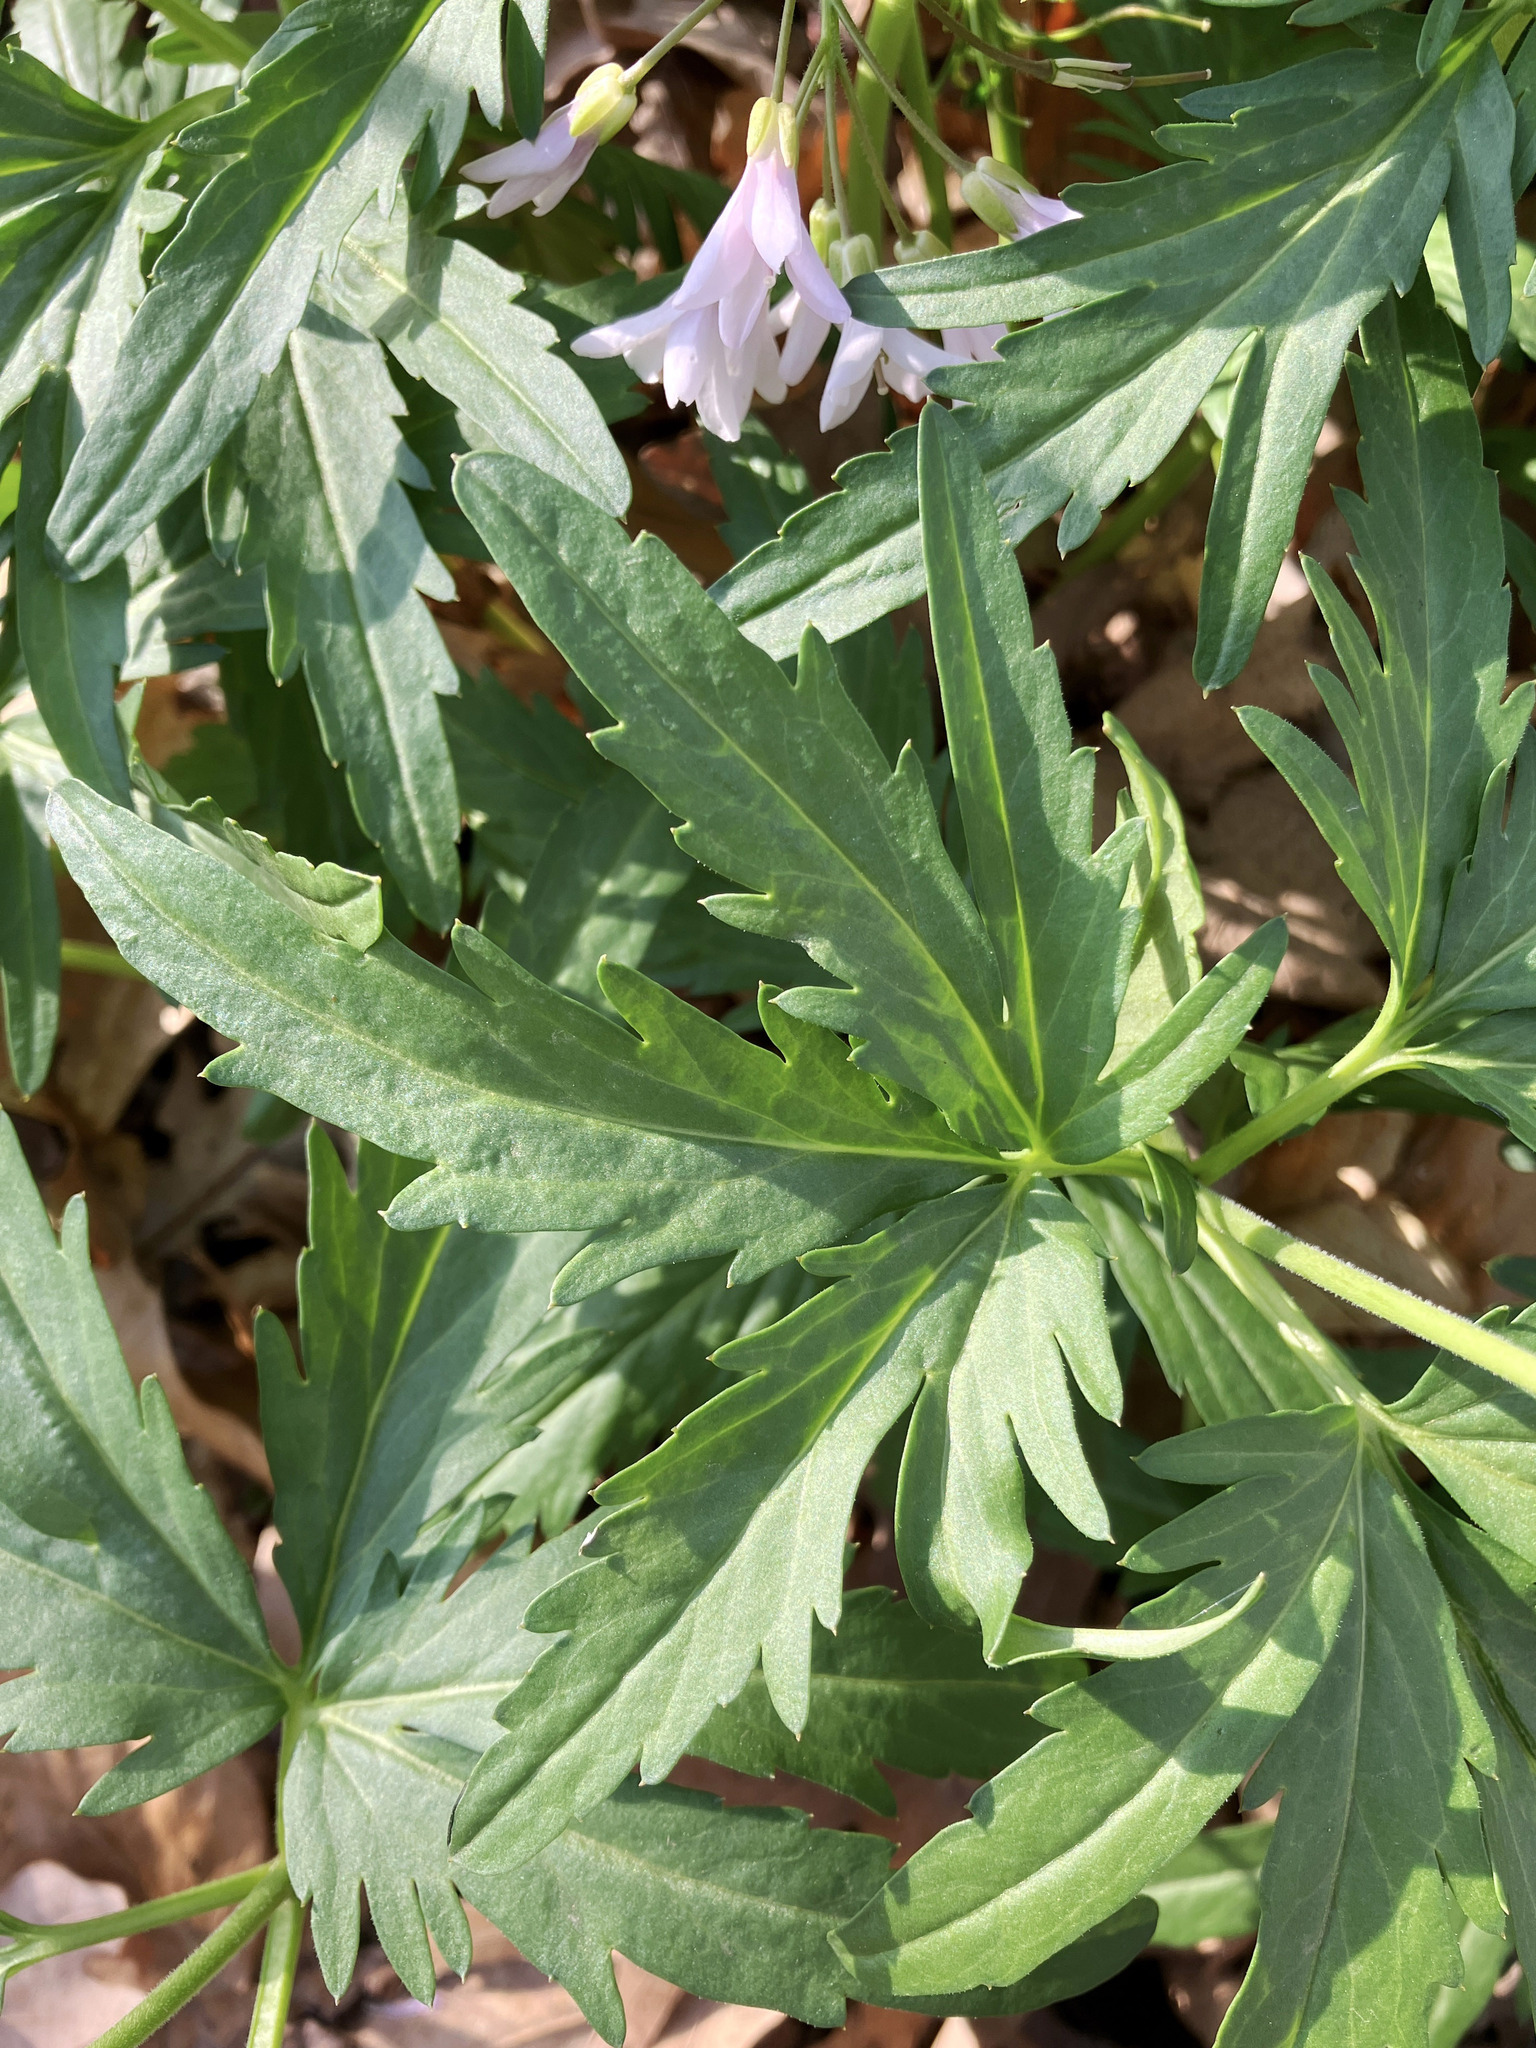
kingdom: Plantae
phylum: Tracheophyta
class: Magnoliopsida
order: Brassicales
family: Brassicaceae
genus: Cardamine
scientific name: Cardamine concatenata
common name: Cut-leaf toothcup
